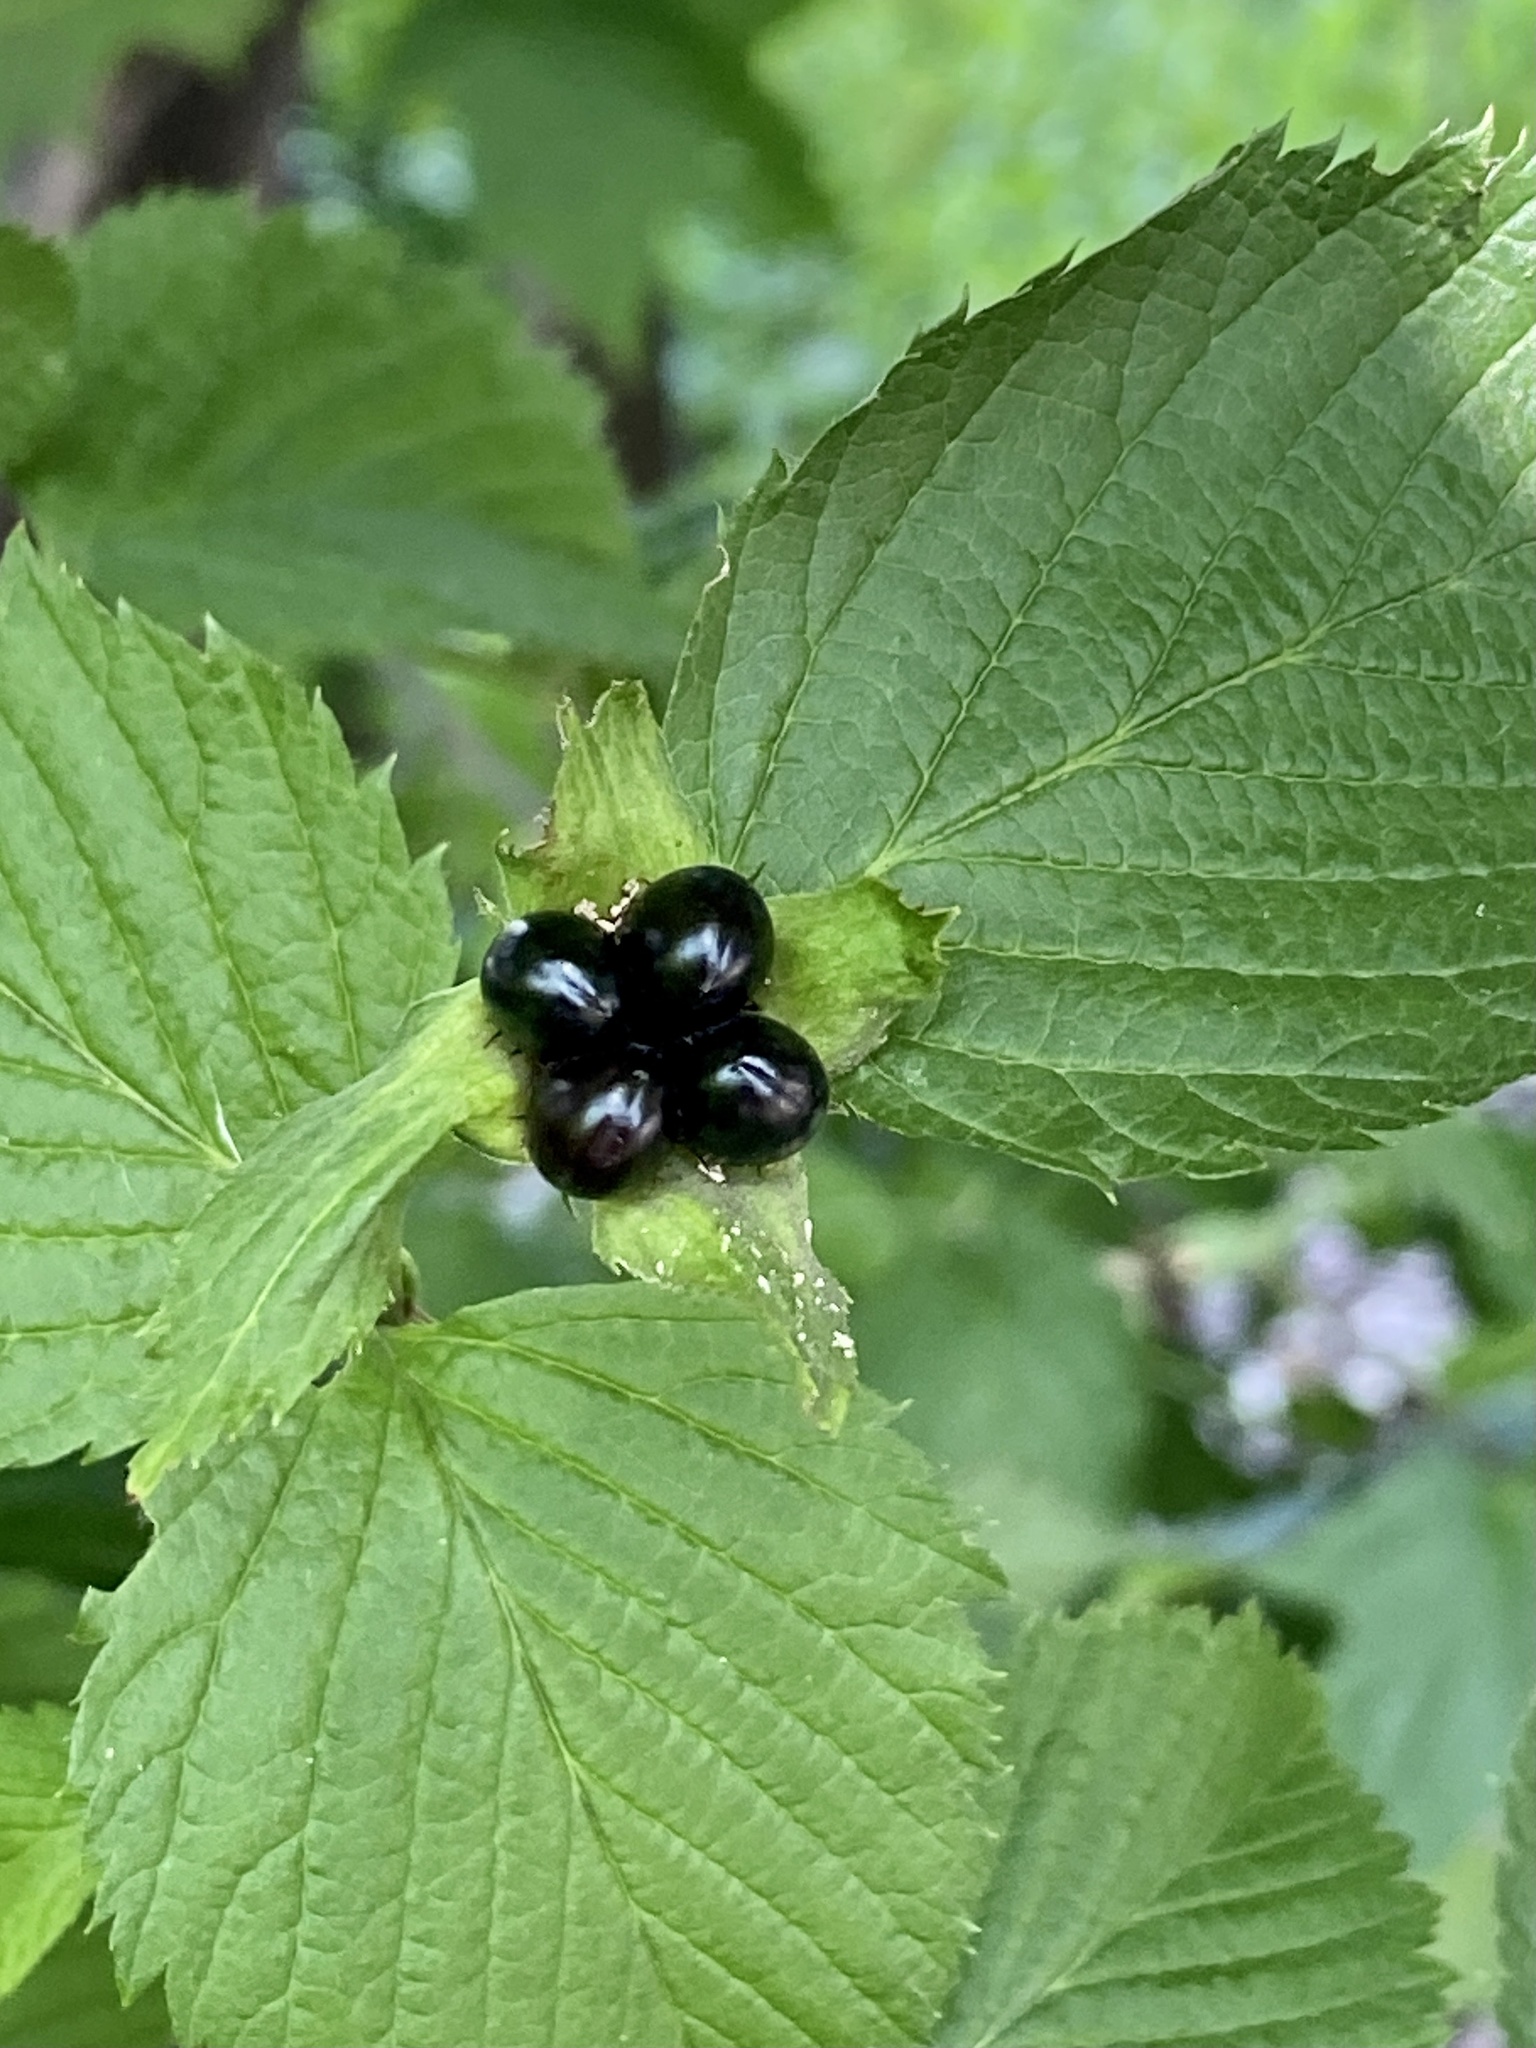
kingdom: Plantae
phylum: Tracheophyta
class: Magnoliopsida
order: Rosales
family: Rosaceae
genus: Rhodotypos
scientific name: Rhodotypos scandens
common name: Jetbead
